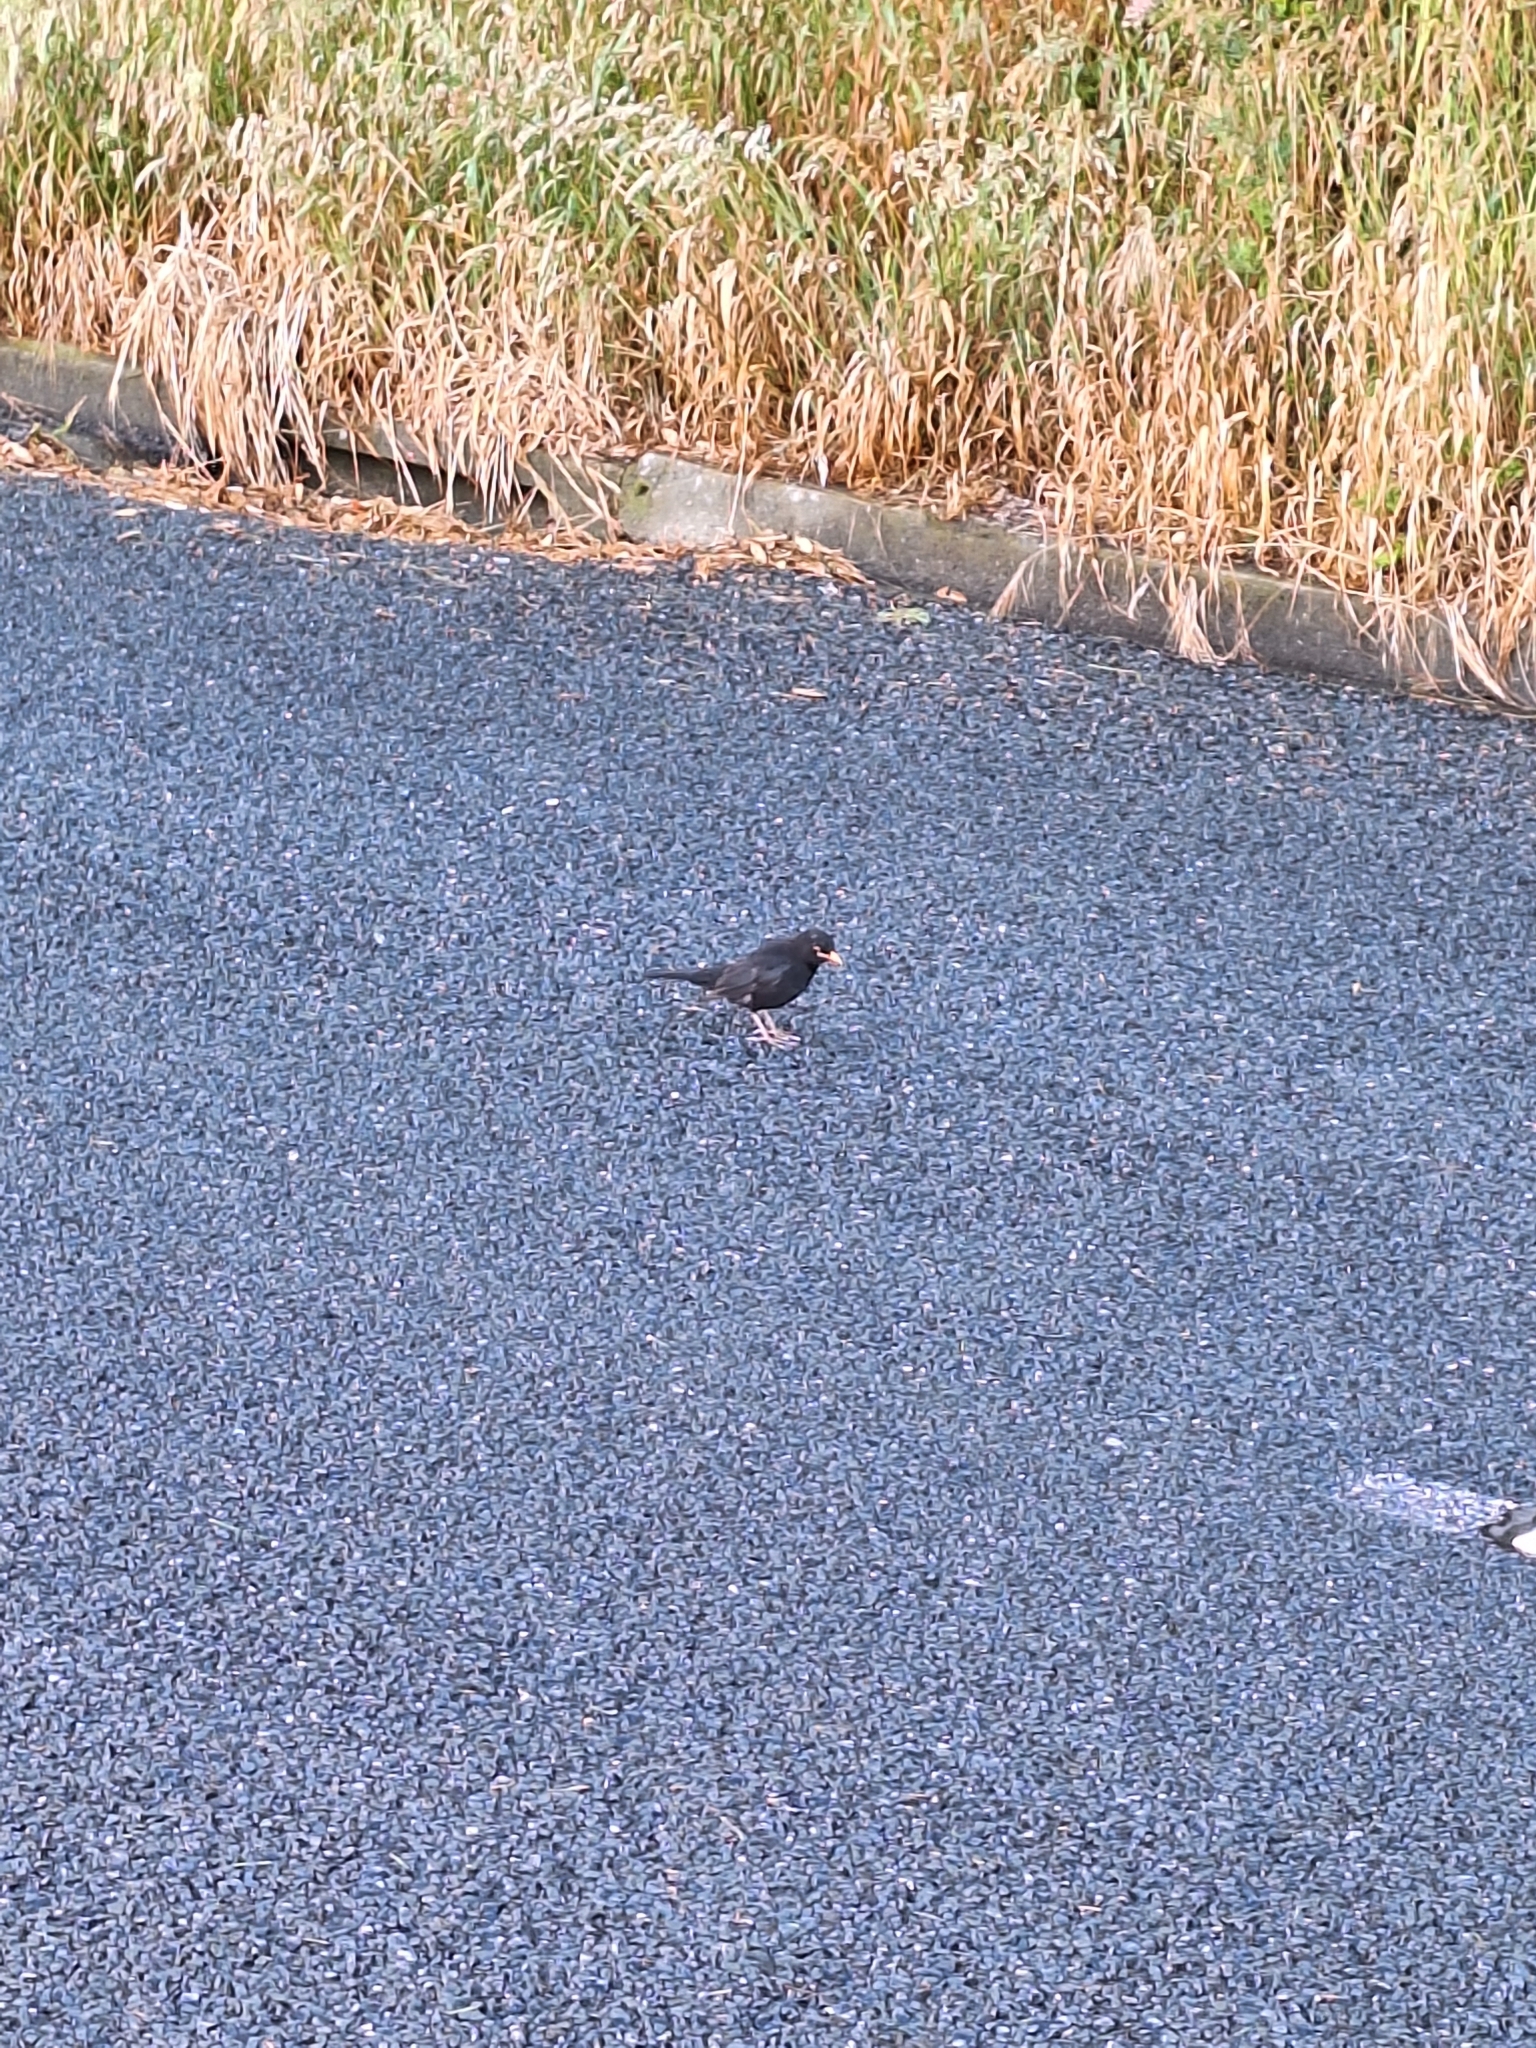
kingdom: Animalia
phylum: Chordata
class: Aves
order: Passeriformes
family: Turdidae
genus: Turdus
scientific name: Turdus merula
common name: Common blackbird
